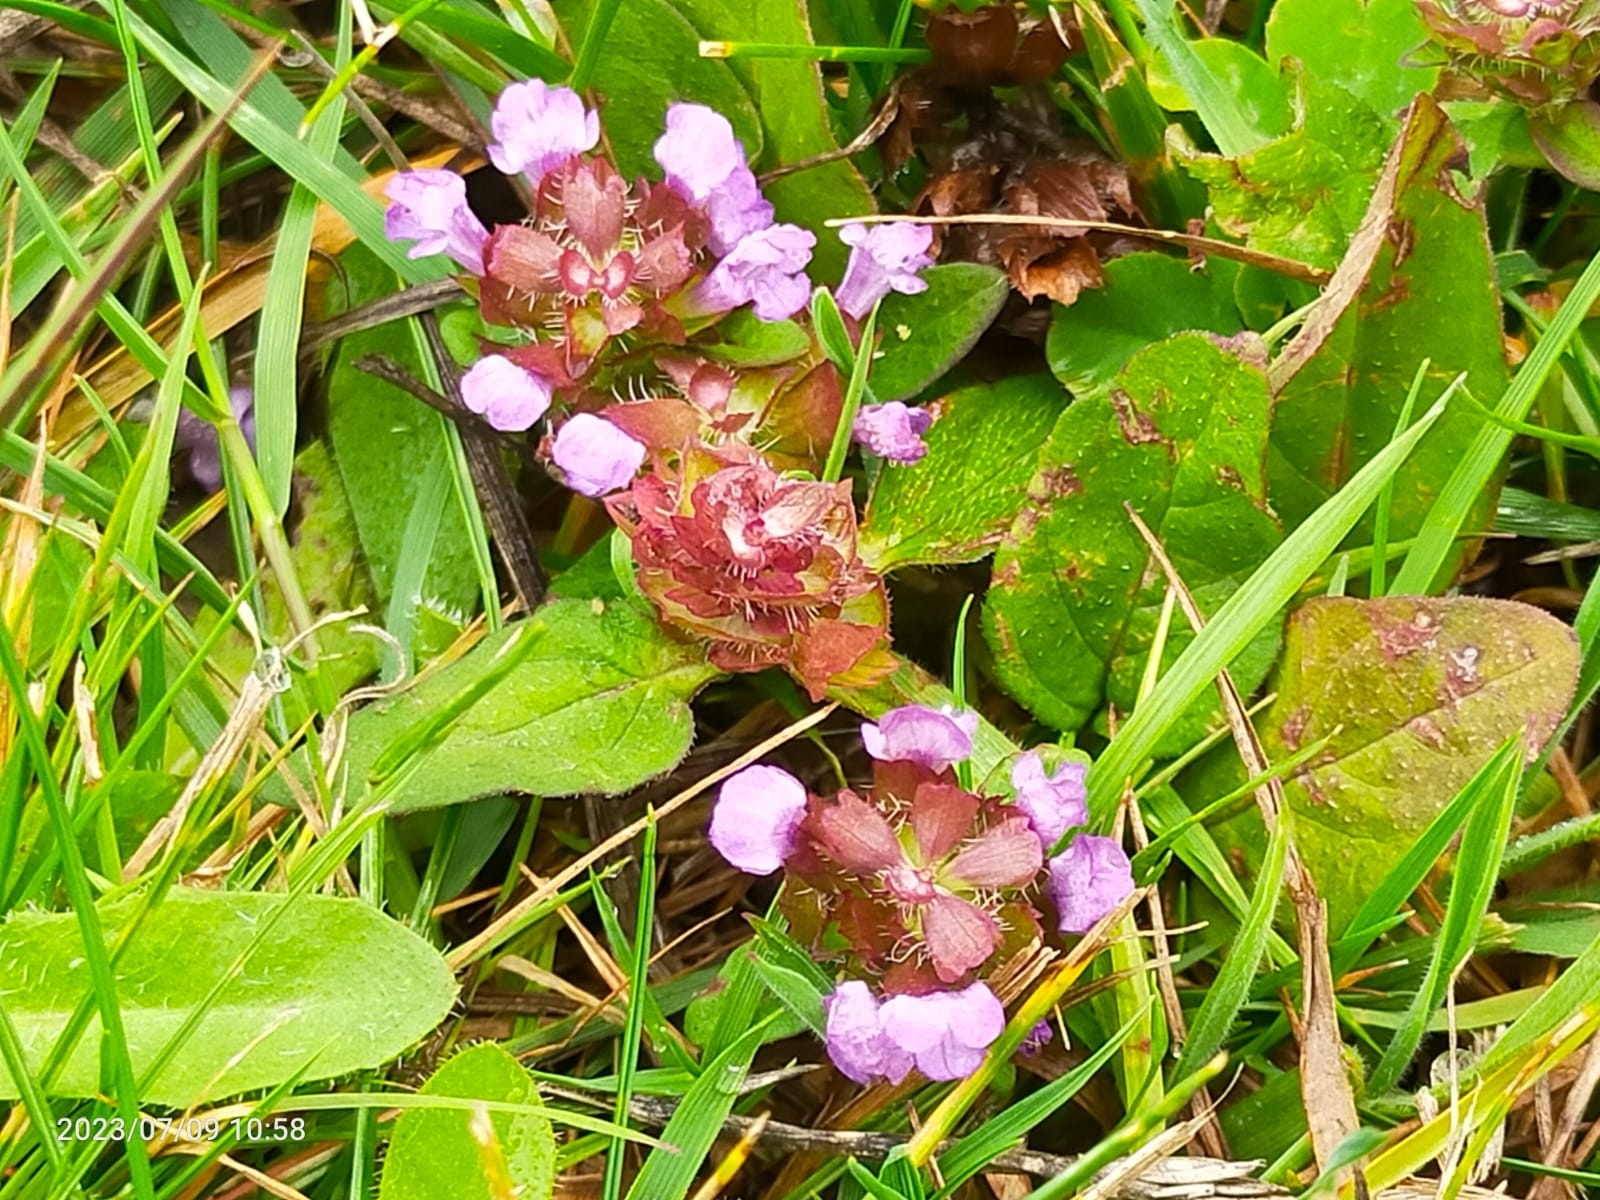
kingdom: Plantae
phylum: Tracheophyta
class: Magnoliopsida
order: Lamiales
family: Lamiaceae
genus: Prunella
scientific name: Prunella vulgaris
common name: Heal-all
